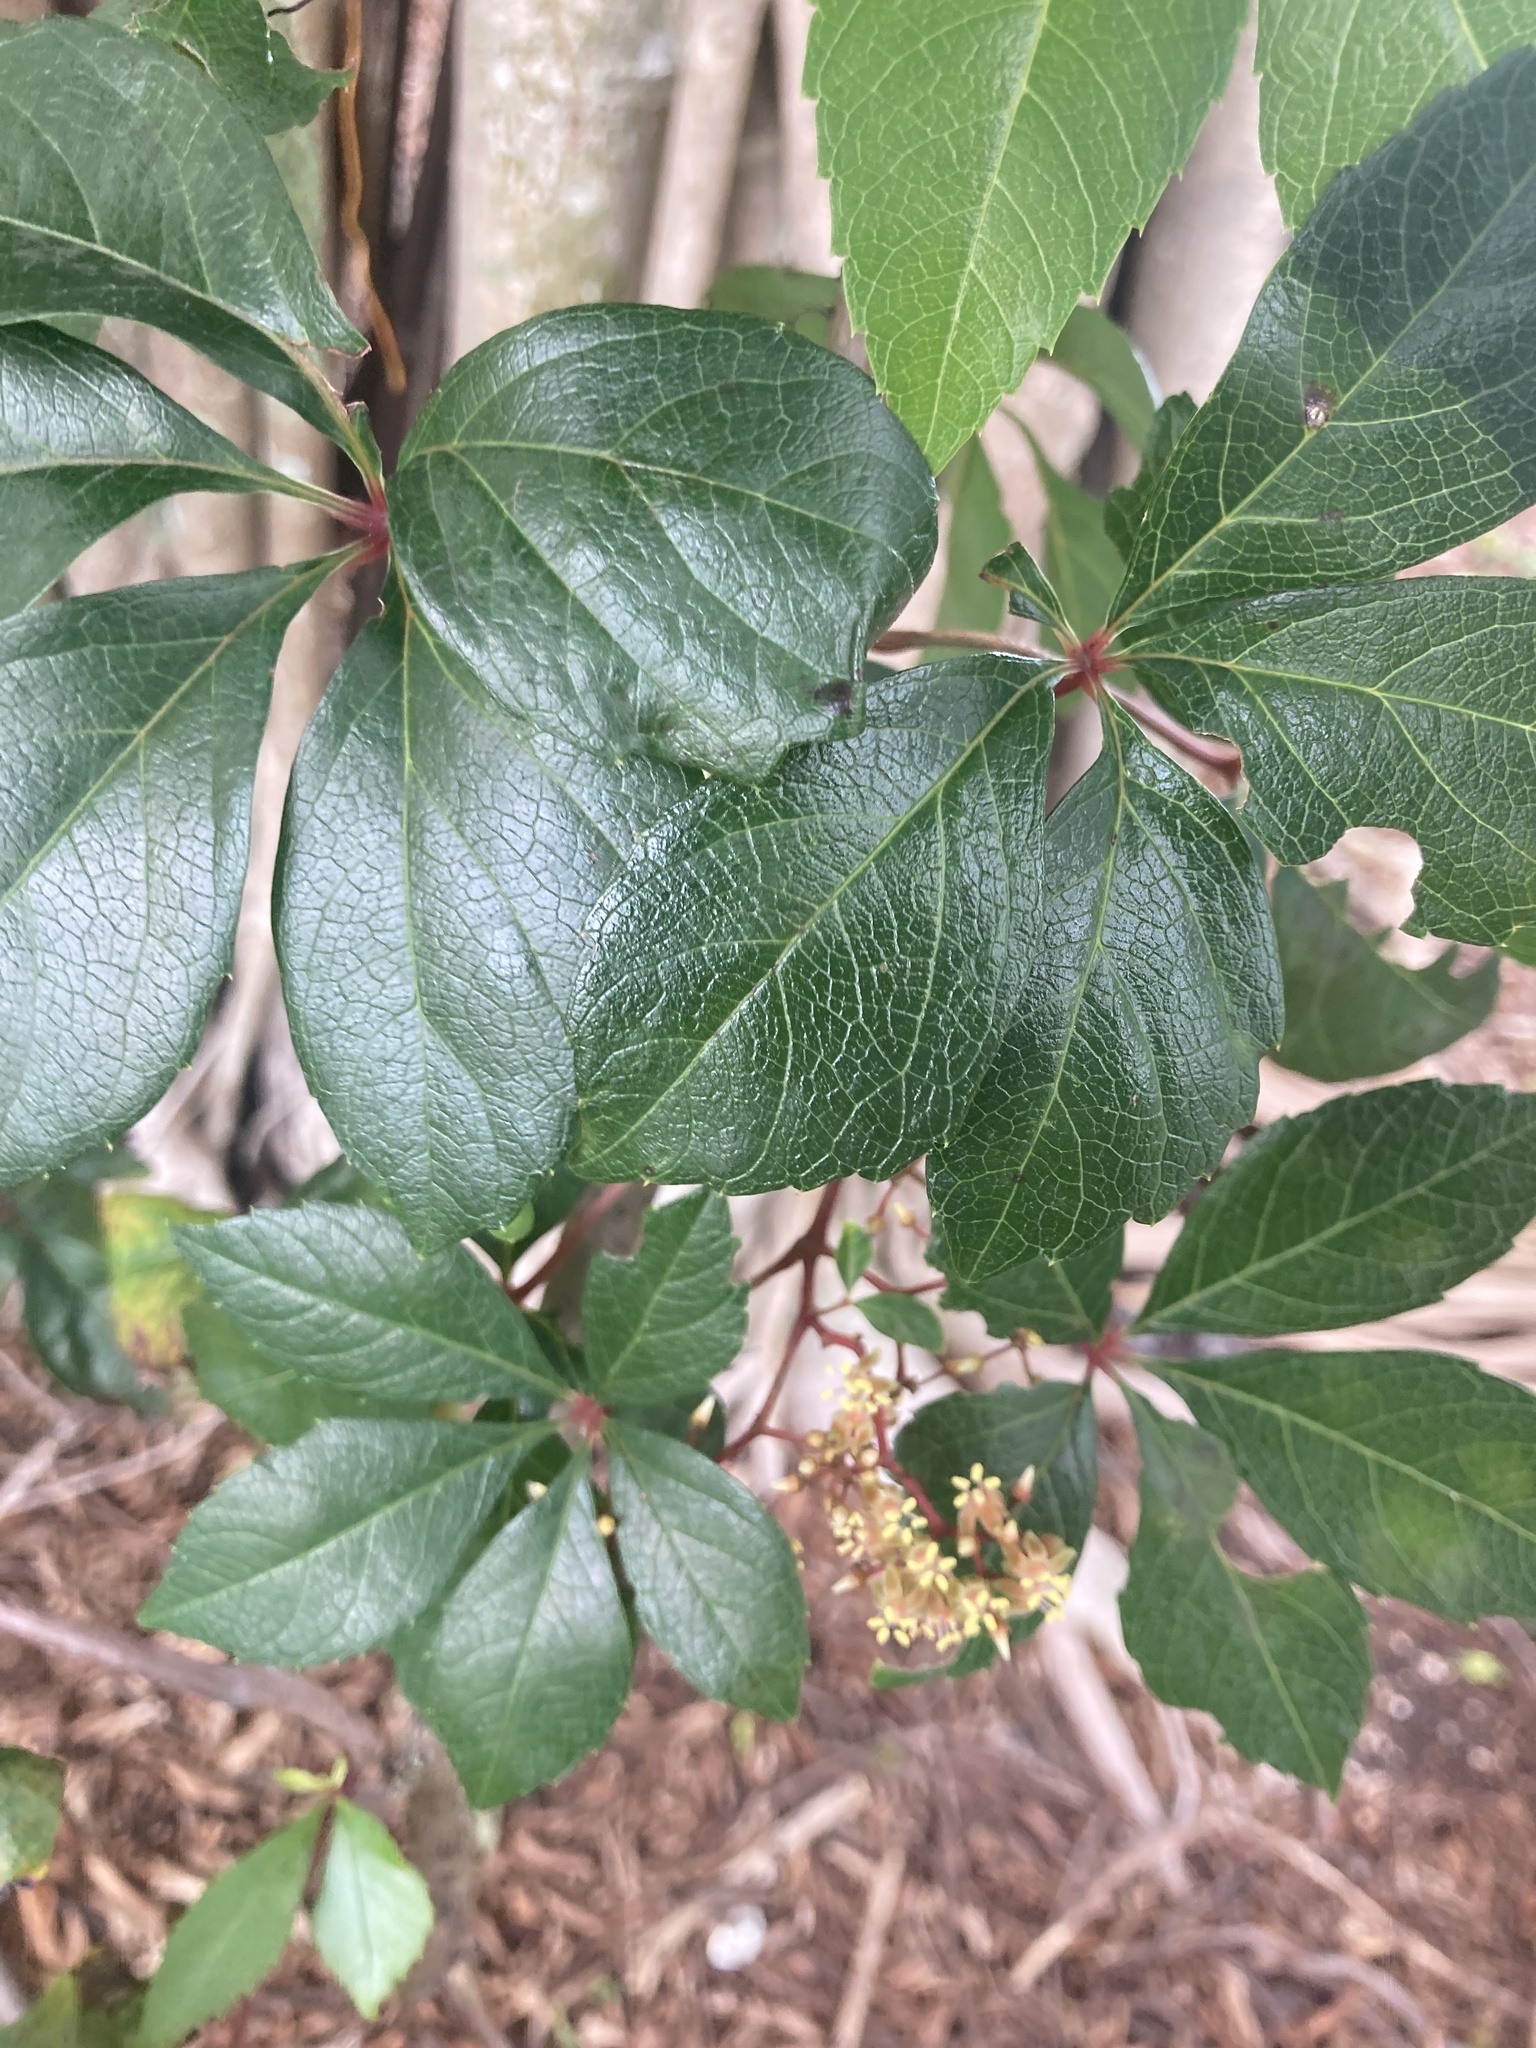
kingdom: Plantae
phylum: Tracheophyta
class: Magnoliopsida
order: Vitales
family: Vitaceae
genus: Parthenocissus
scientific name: Parthenocissus quinquefolia
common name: Virginia-creeper
